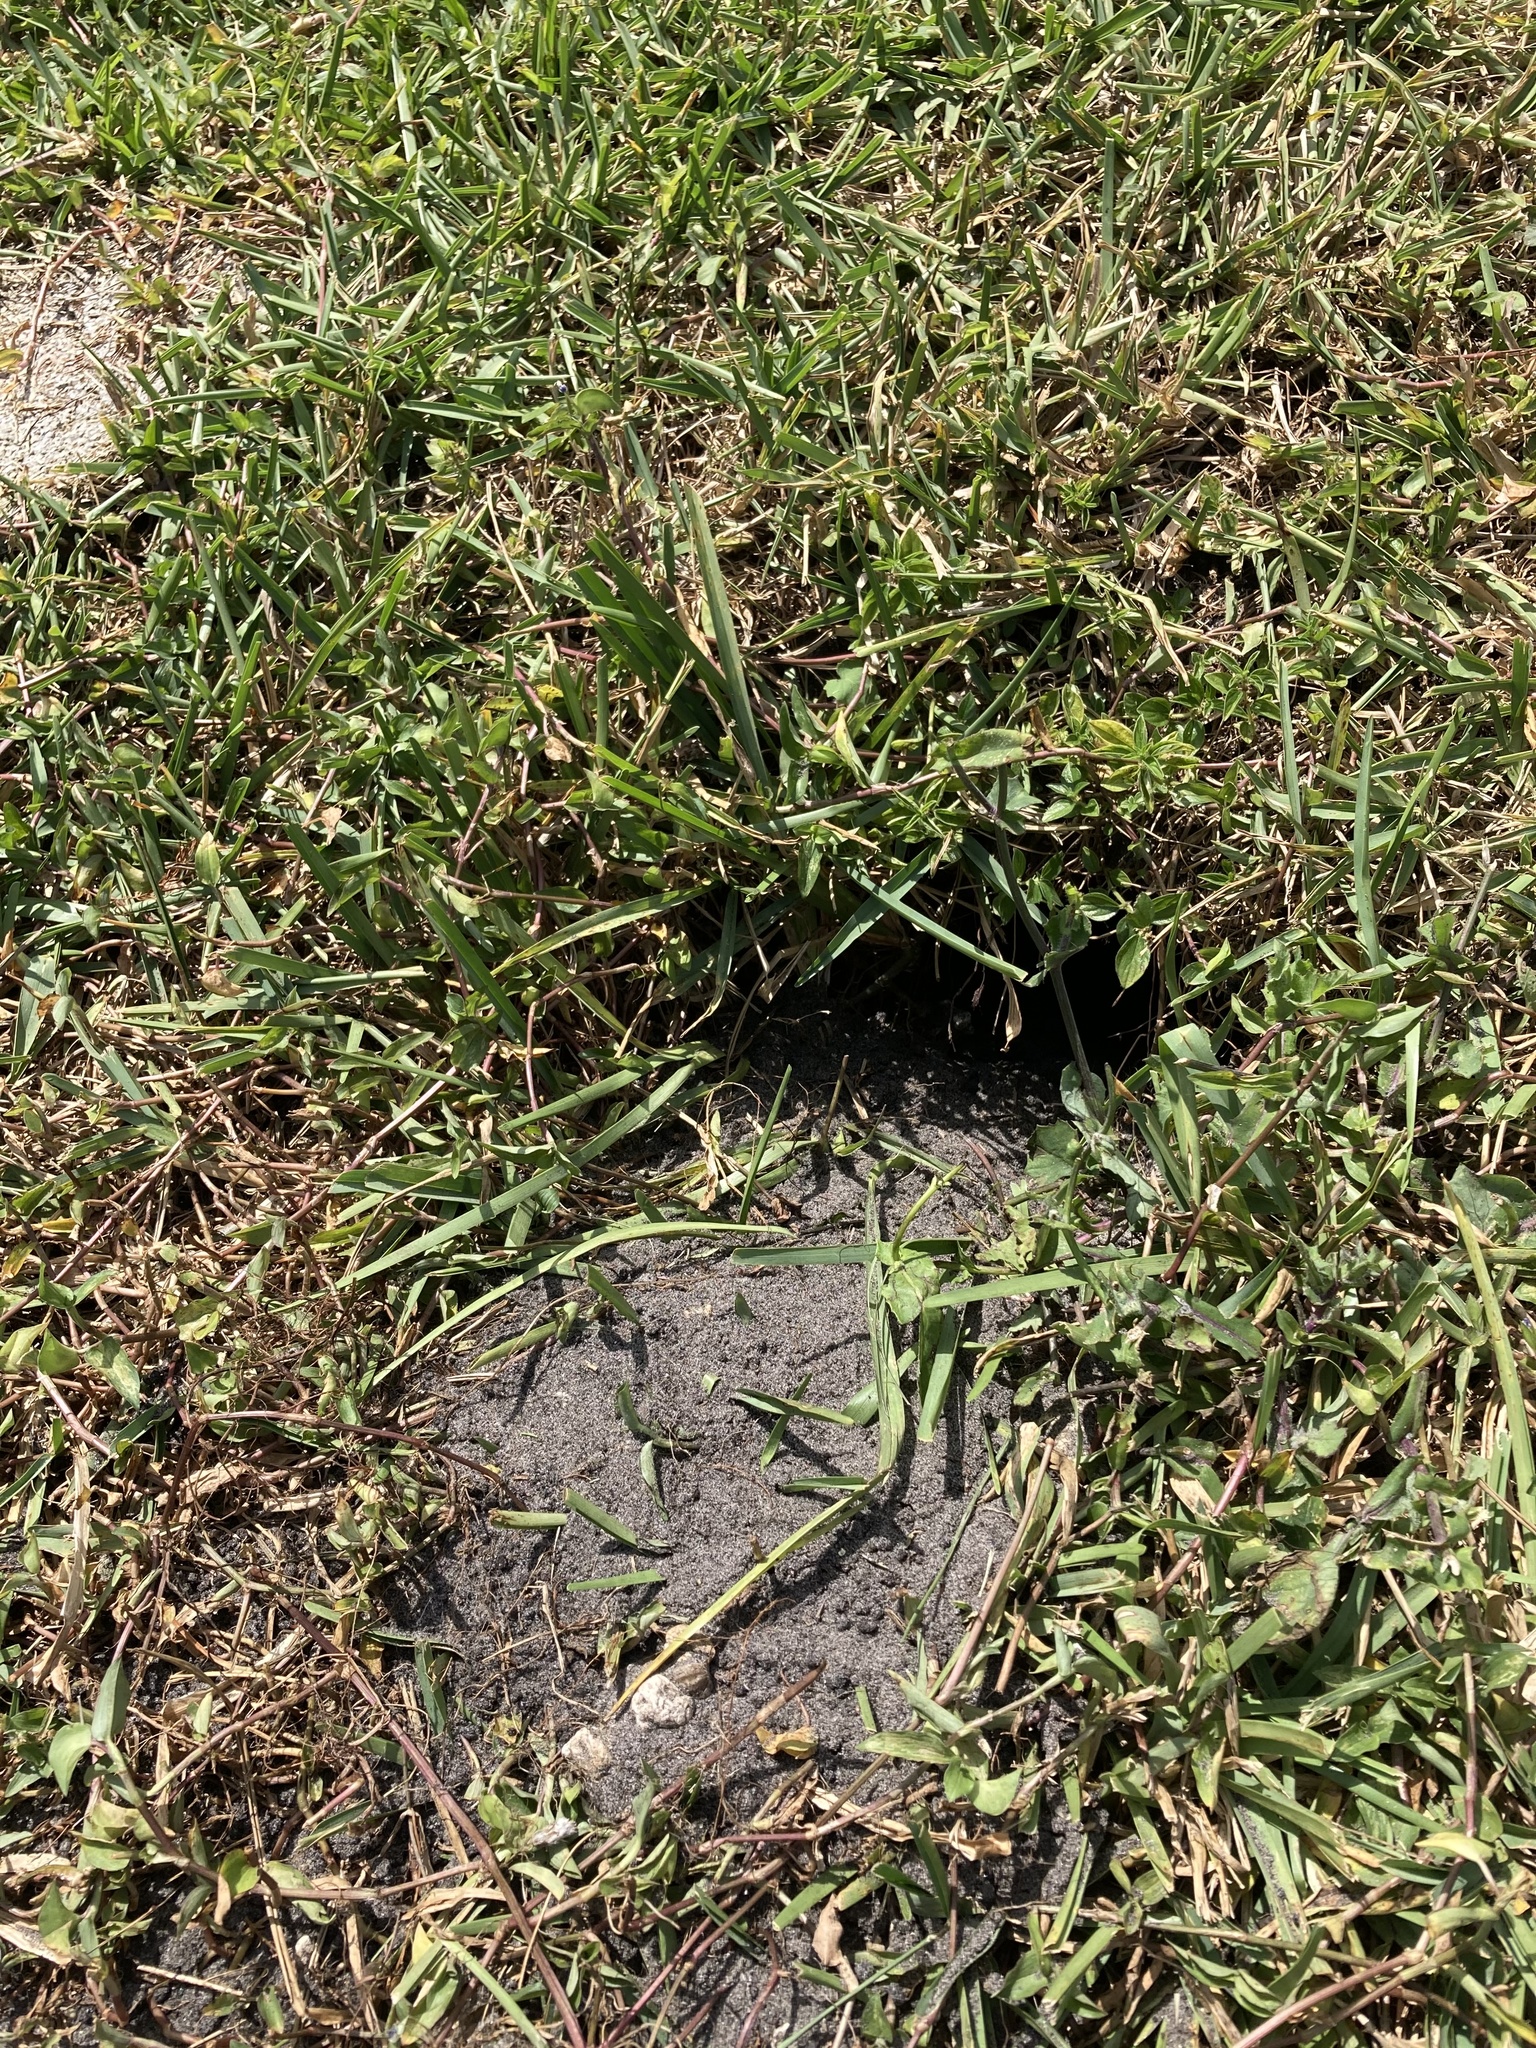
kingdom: Animalia
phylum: Chordata
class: Squamata
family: Iguanidae
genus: Iguana
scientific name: Iguana iguana
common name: Green iguana
